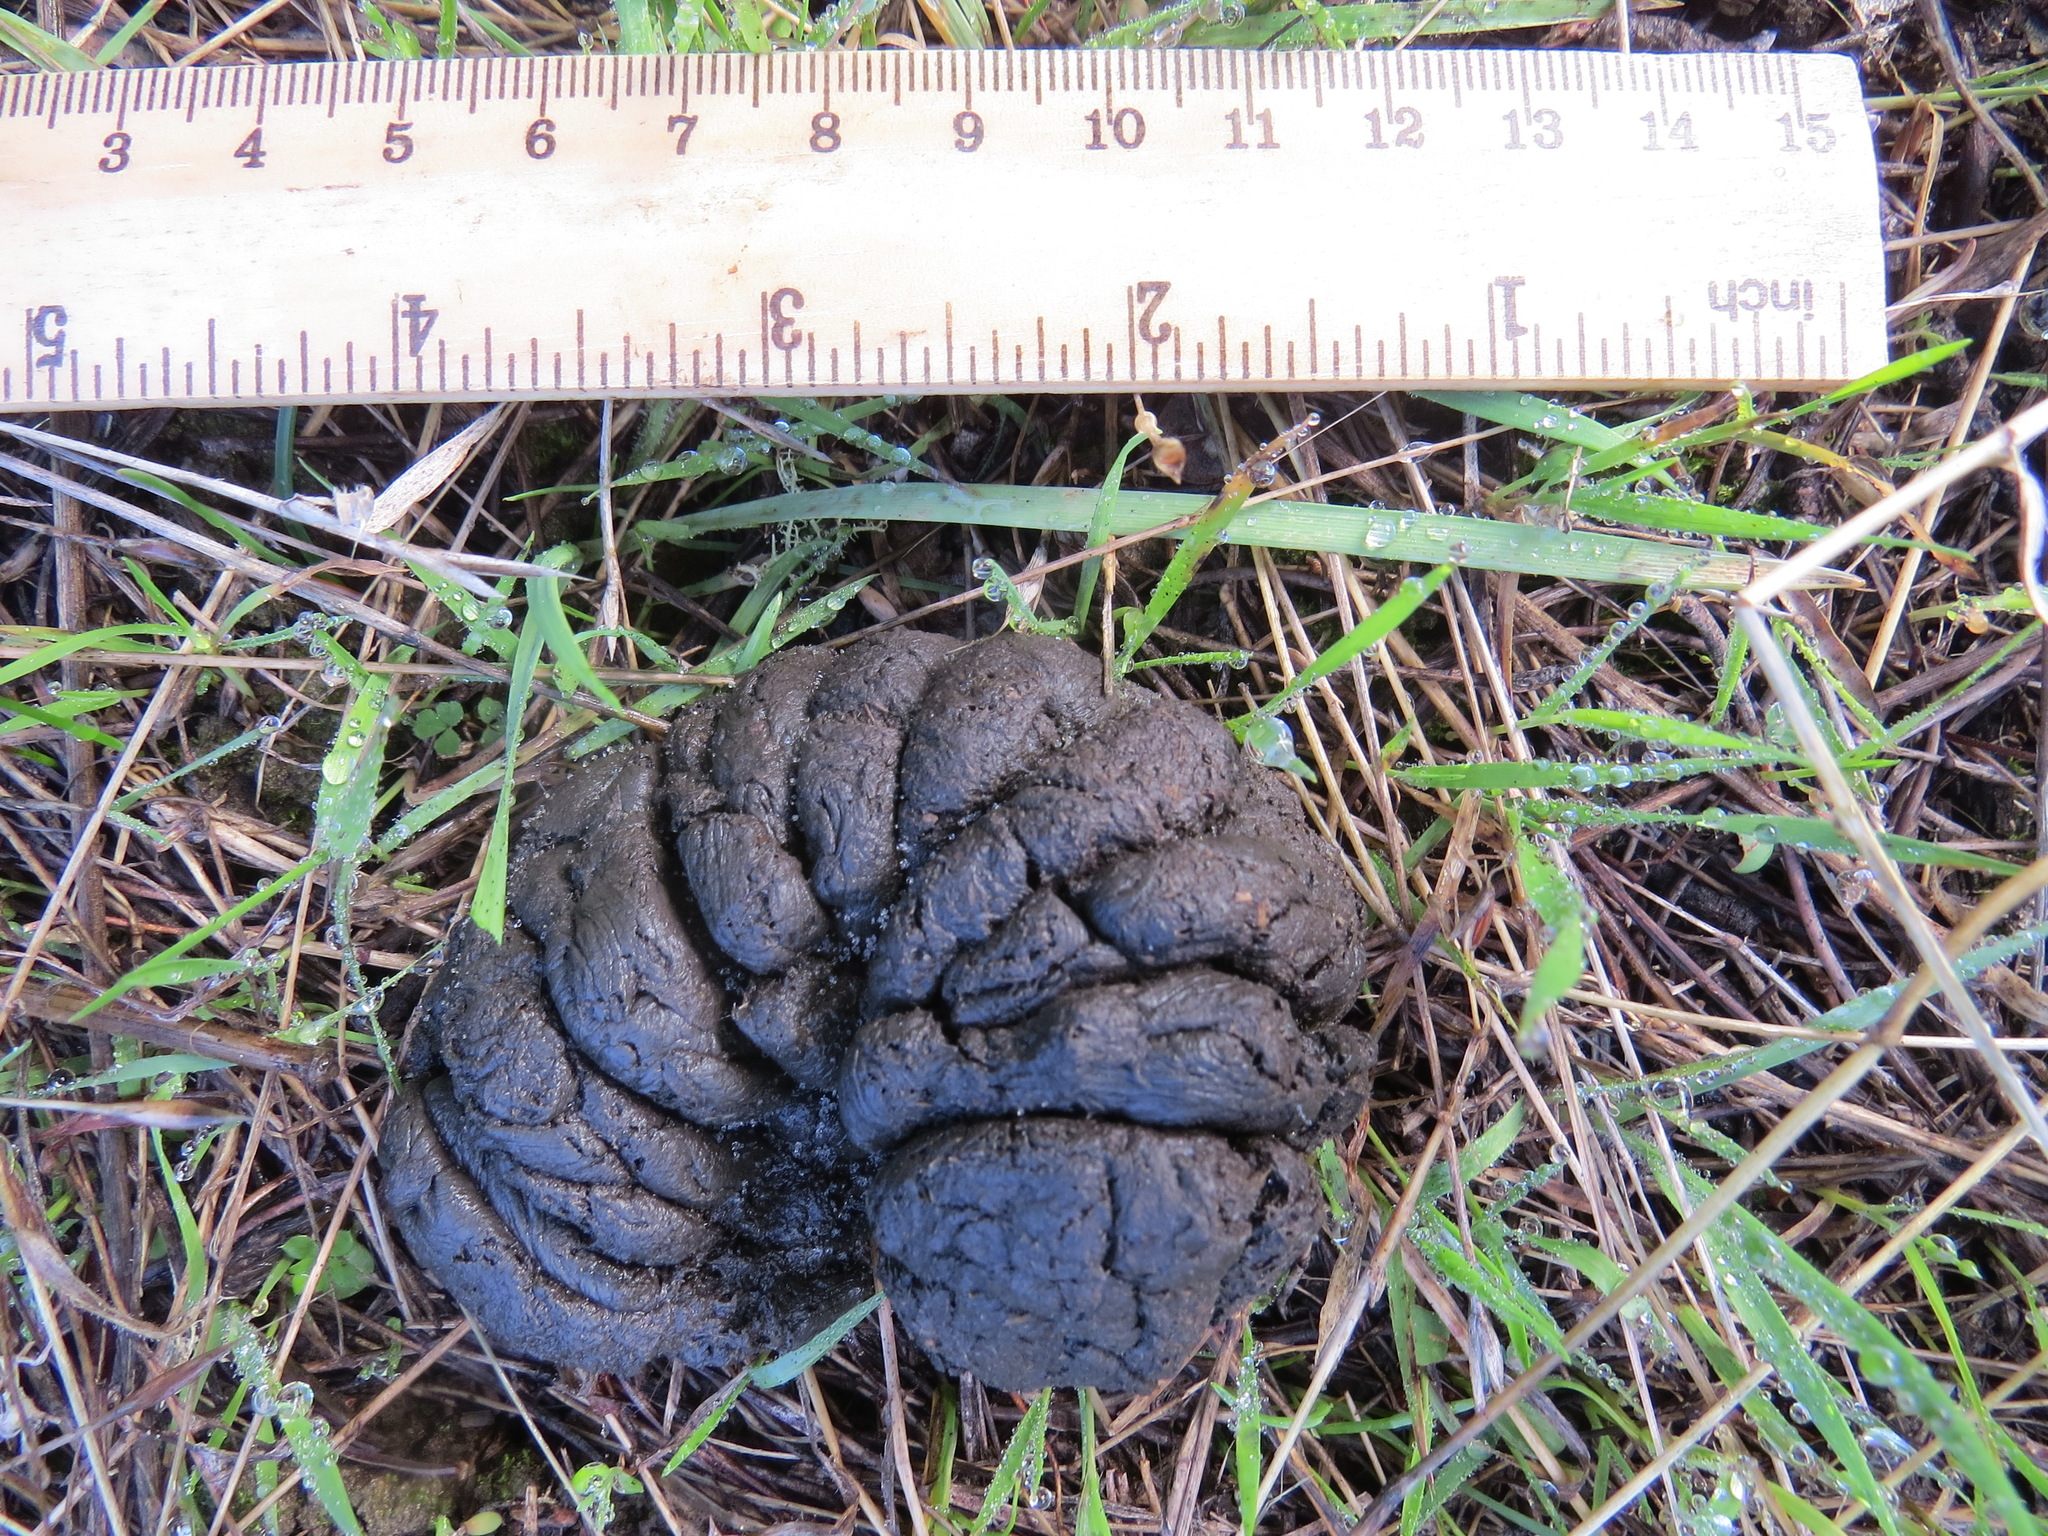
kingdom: Animalia
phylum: Chordata
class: Mammalia
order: Artiodactyla
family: Cervidae
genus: Odocoileus
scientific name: Odocoileus hemionus
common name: Mule deer
